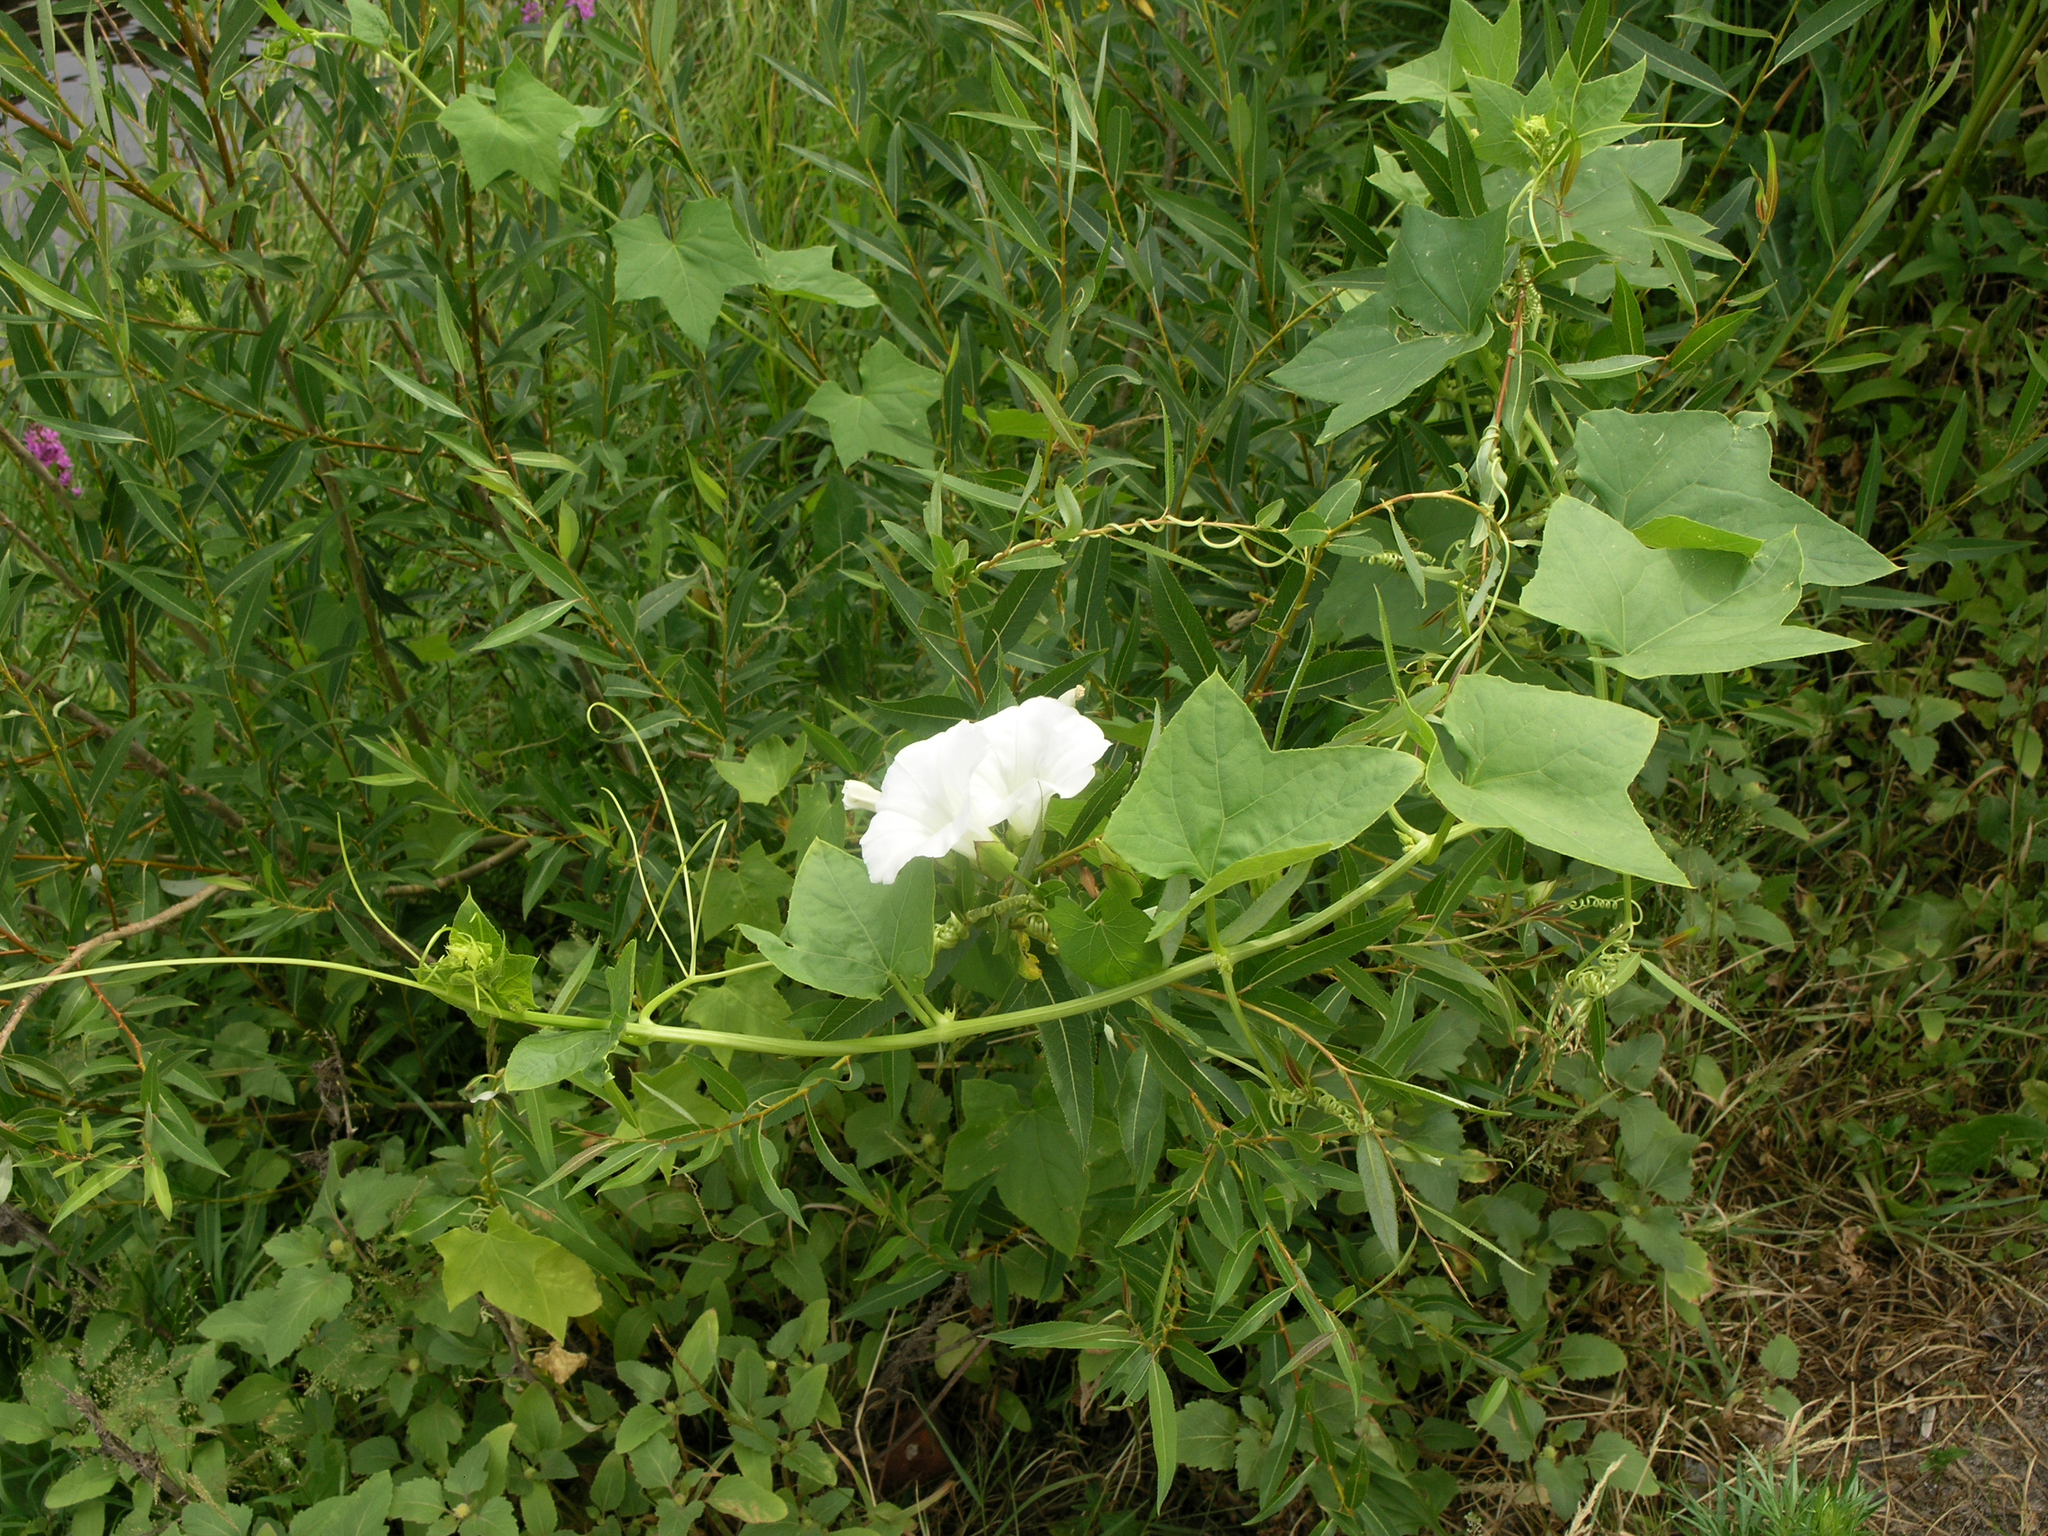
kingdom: Plantae
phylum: Tracheophyta
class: Magnoliopsida
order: Solanales
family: Convolvulaceae
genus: Calystegia
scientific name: Calystegia sepium
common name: Hedge bindweed
